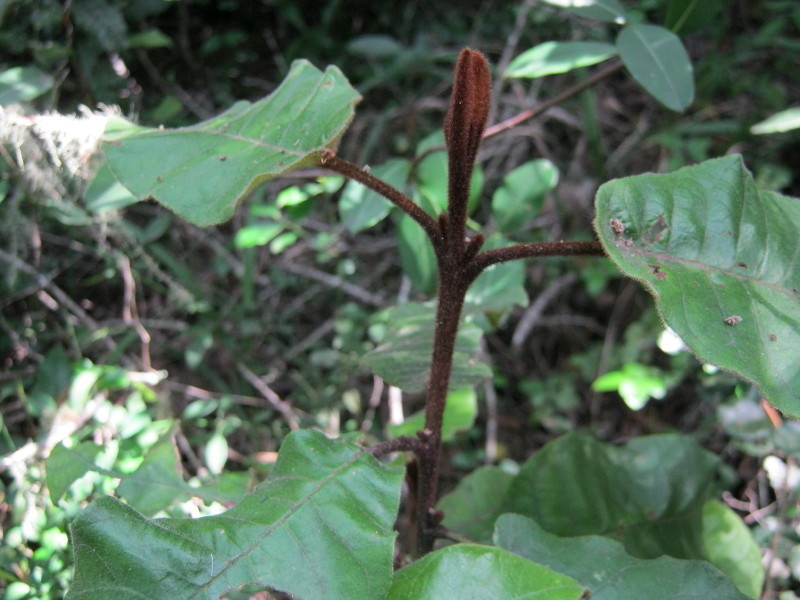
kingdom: Plantae
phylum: Tracheophyta
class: Magnoliopsida
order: Saxifragales
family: Hamamelidaceae
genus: Trichocladus
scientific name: Trichocladus crinitus
